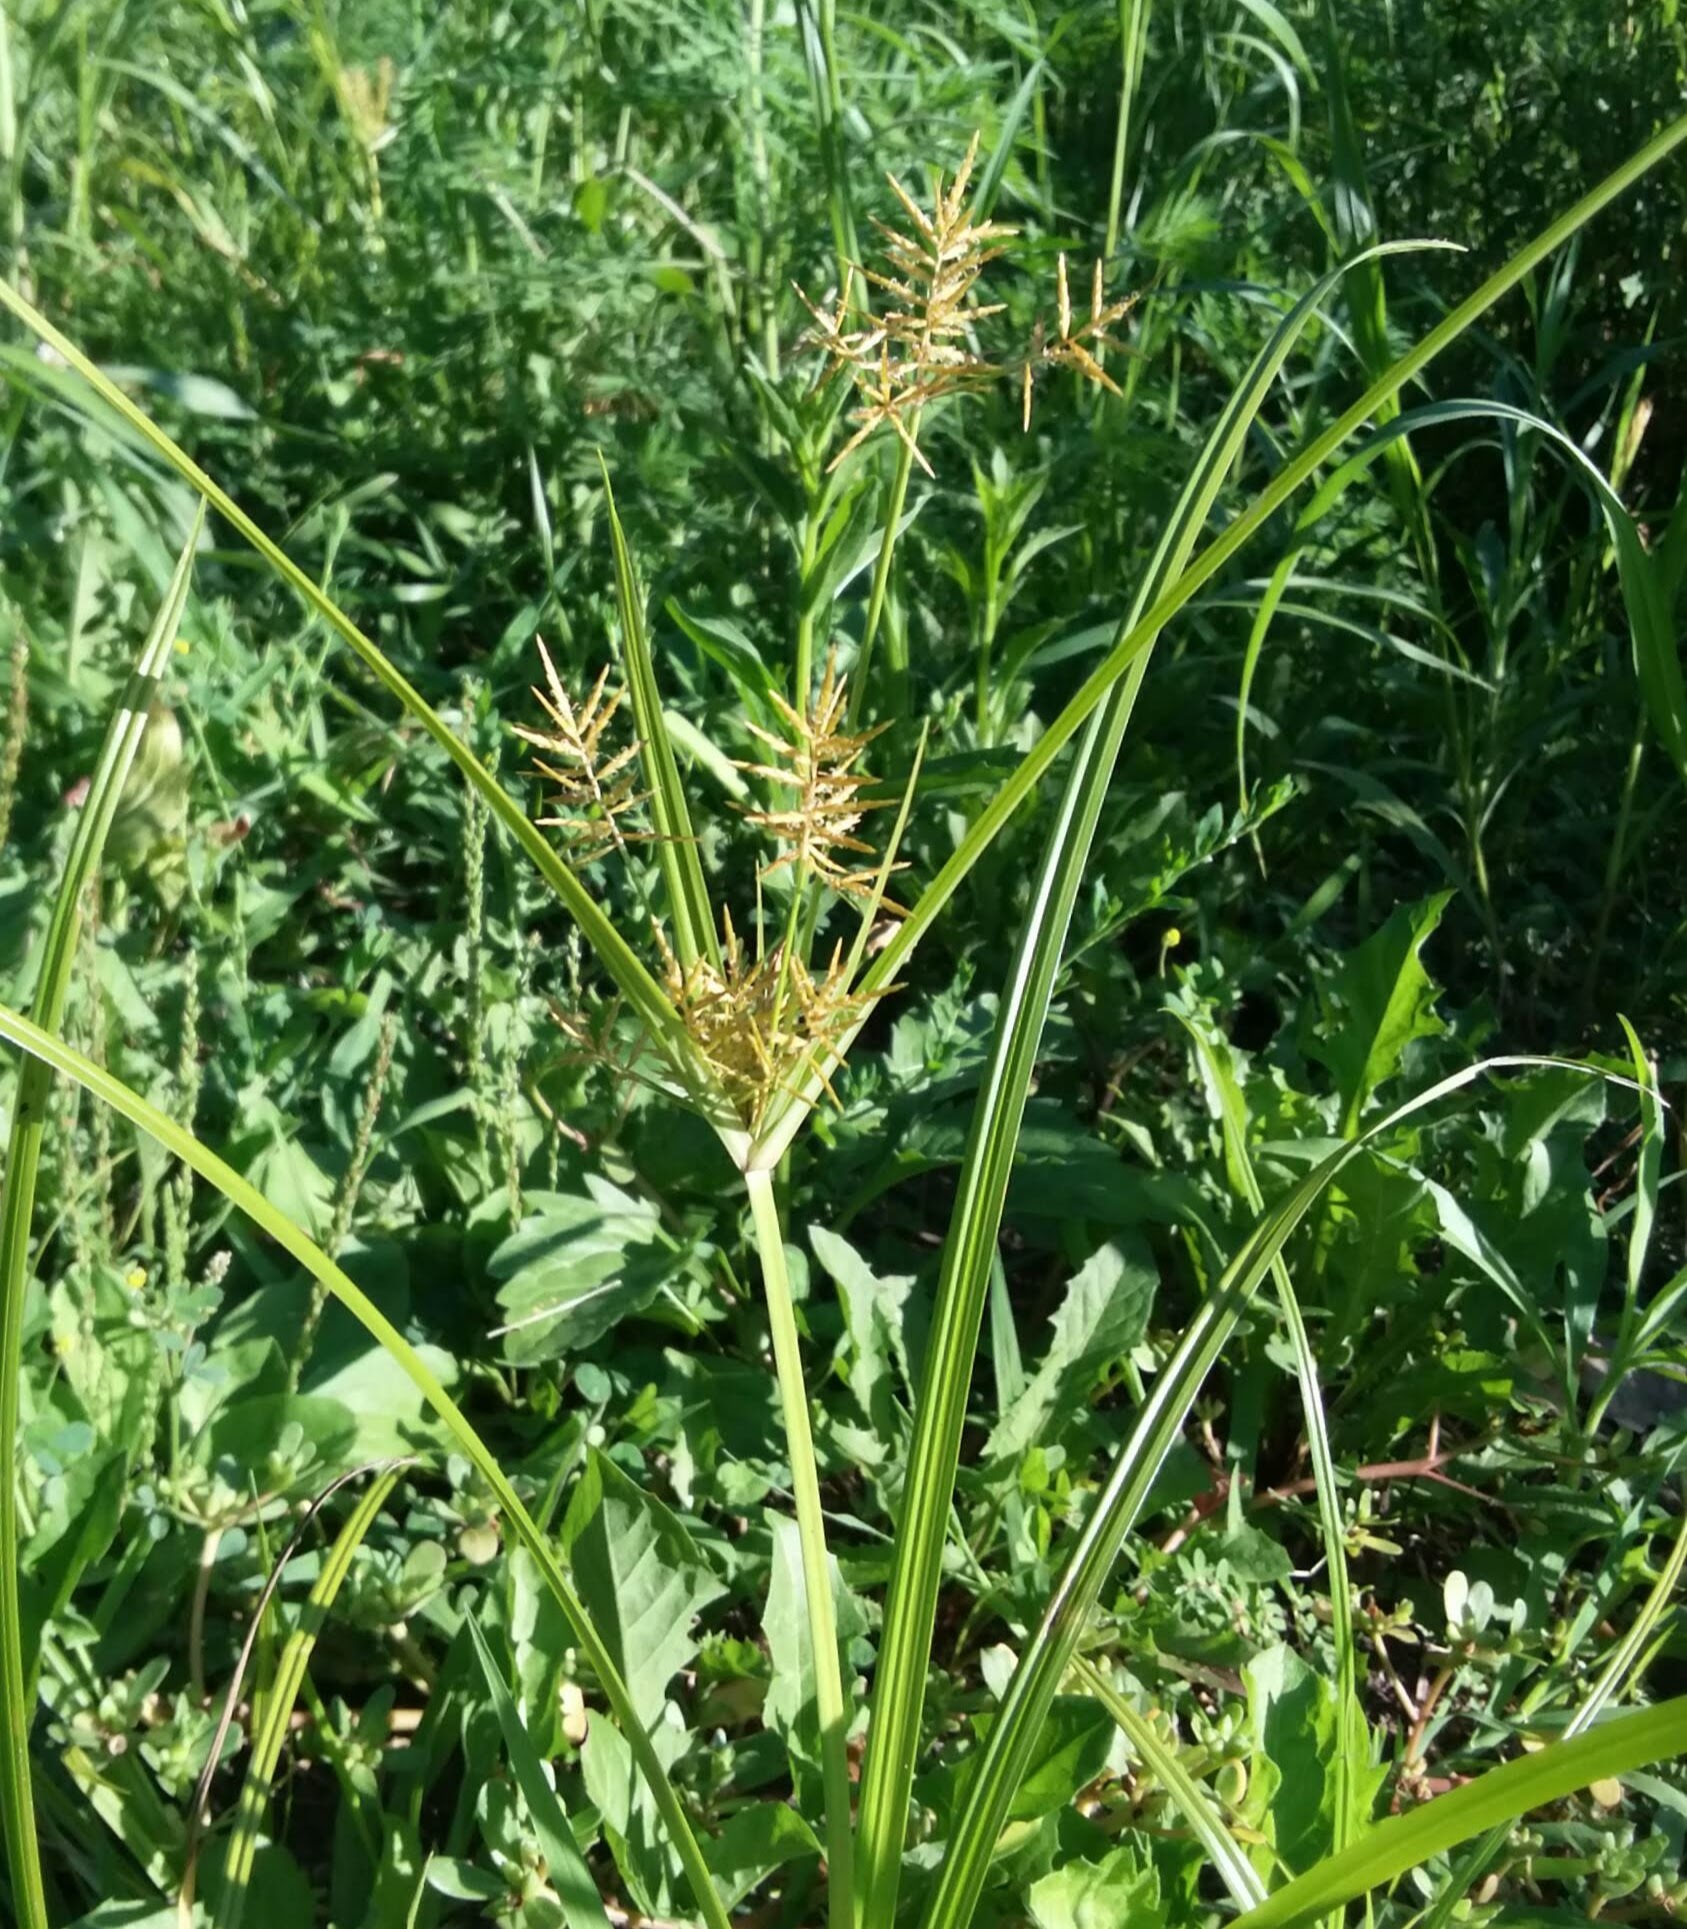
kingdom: Plantae
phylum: Tracheophyta
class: Liliopsida
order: Poales
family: Cyperaceae
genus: Cyperus
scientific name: Cyperus esculentus
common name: Yellow nutsedge
